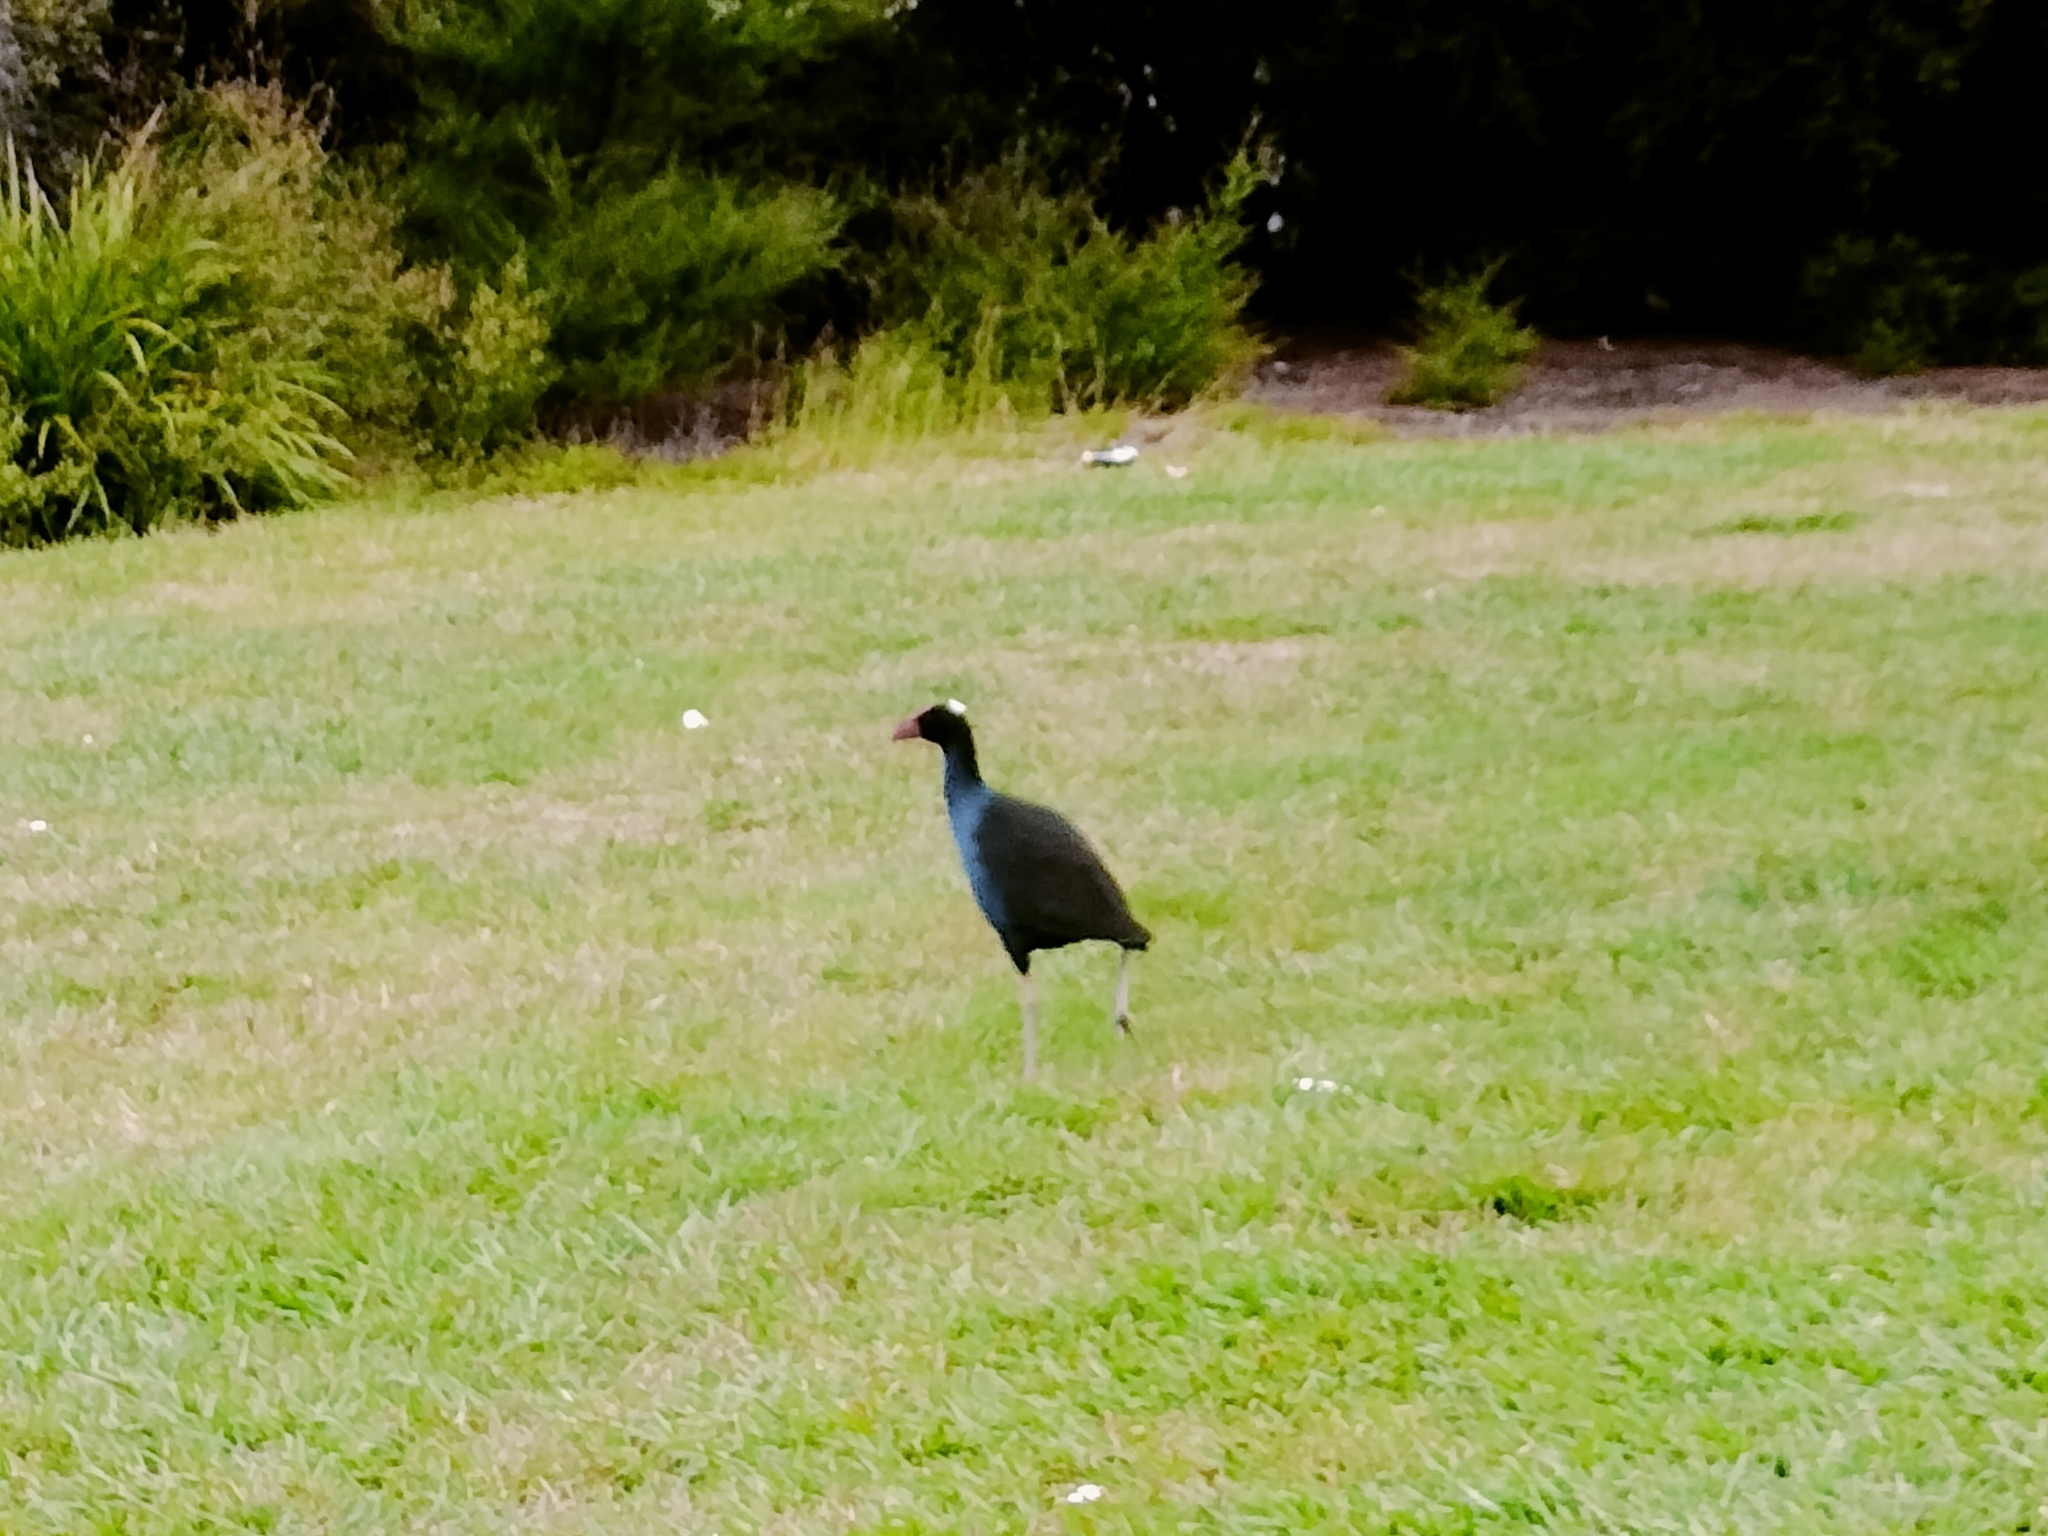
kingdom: Animalia
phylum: Chordata
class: Aves
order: Gruiformes
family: Rallidae
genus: Porphyrio
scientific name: Porphyrio melanotus
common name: Australasian swamphen
